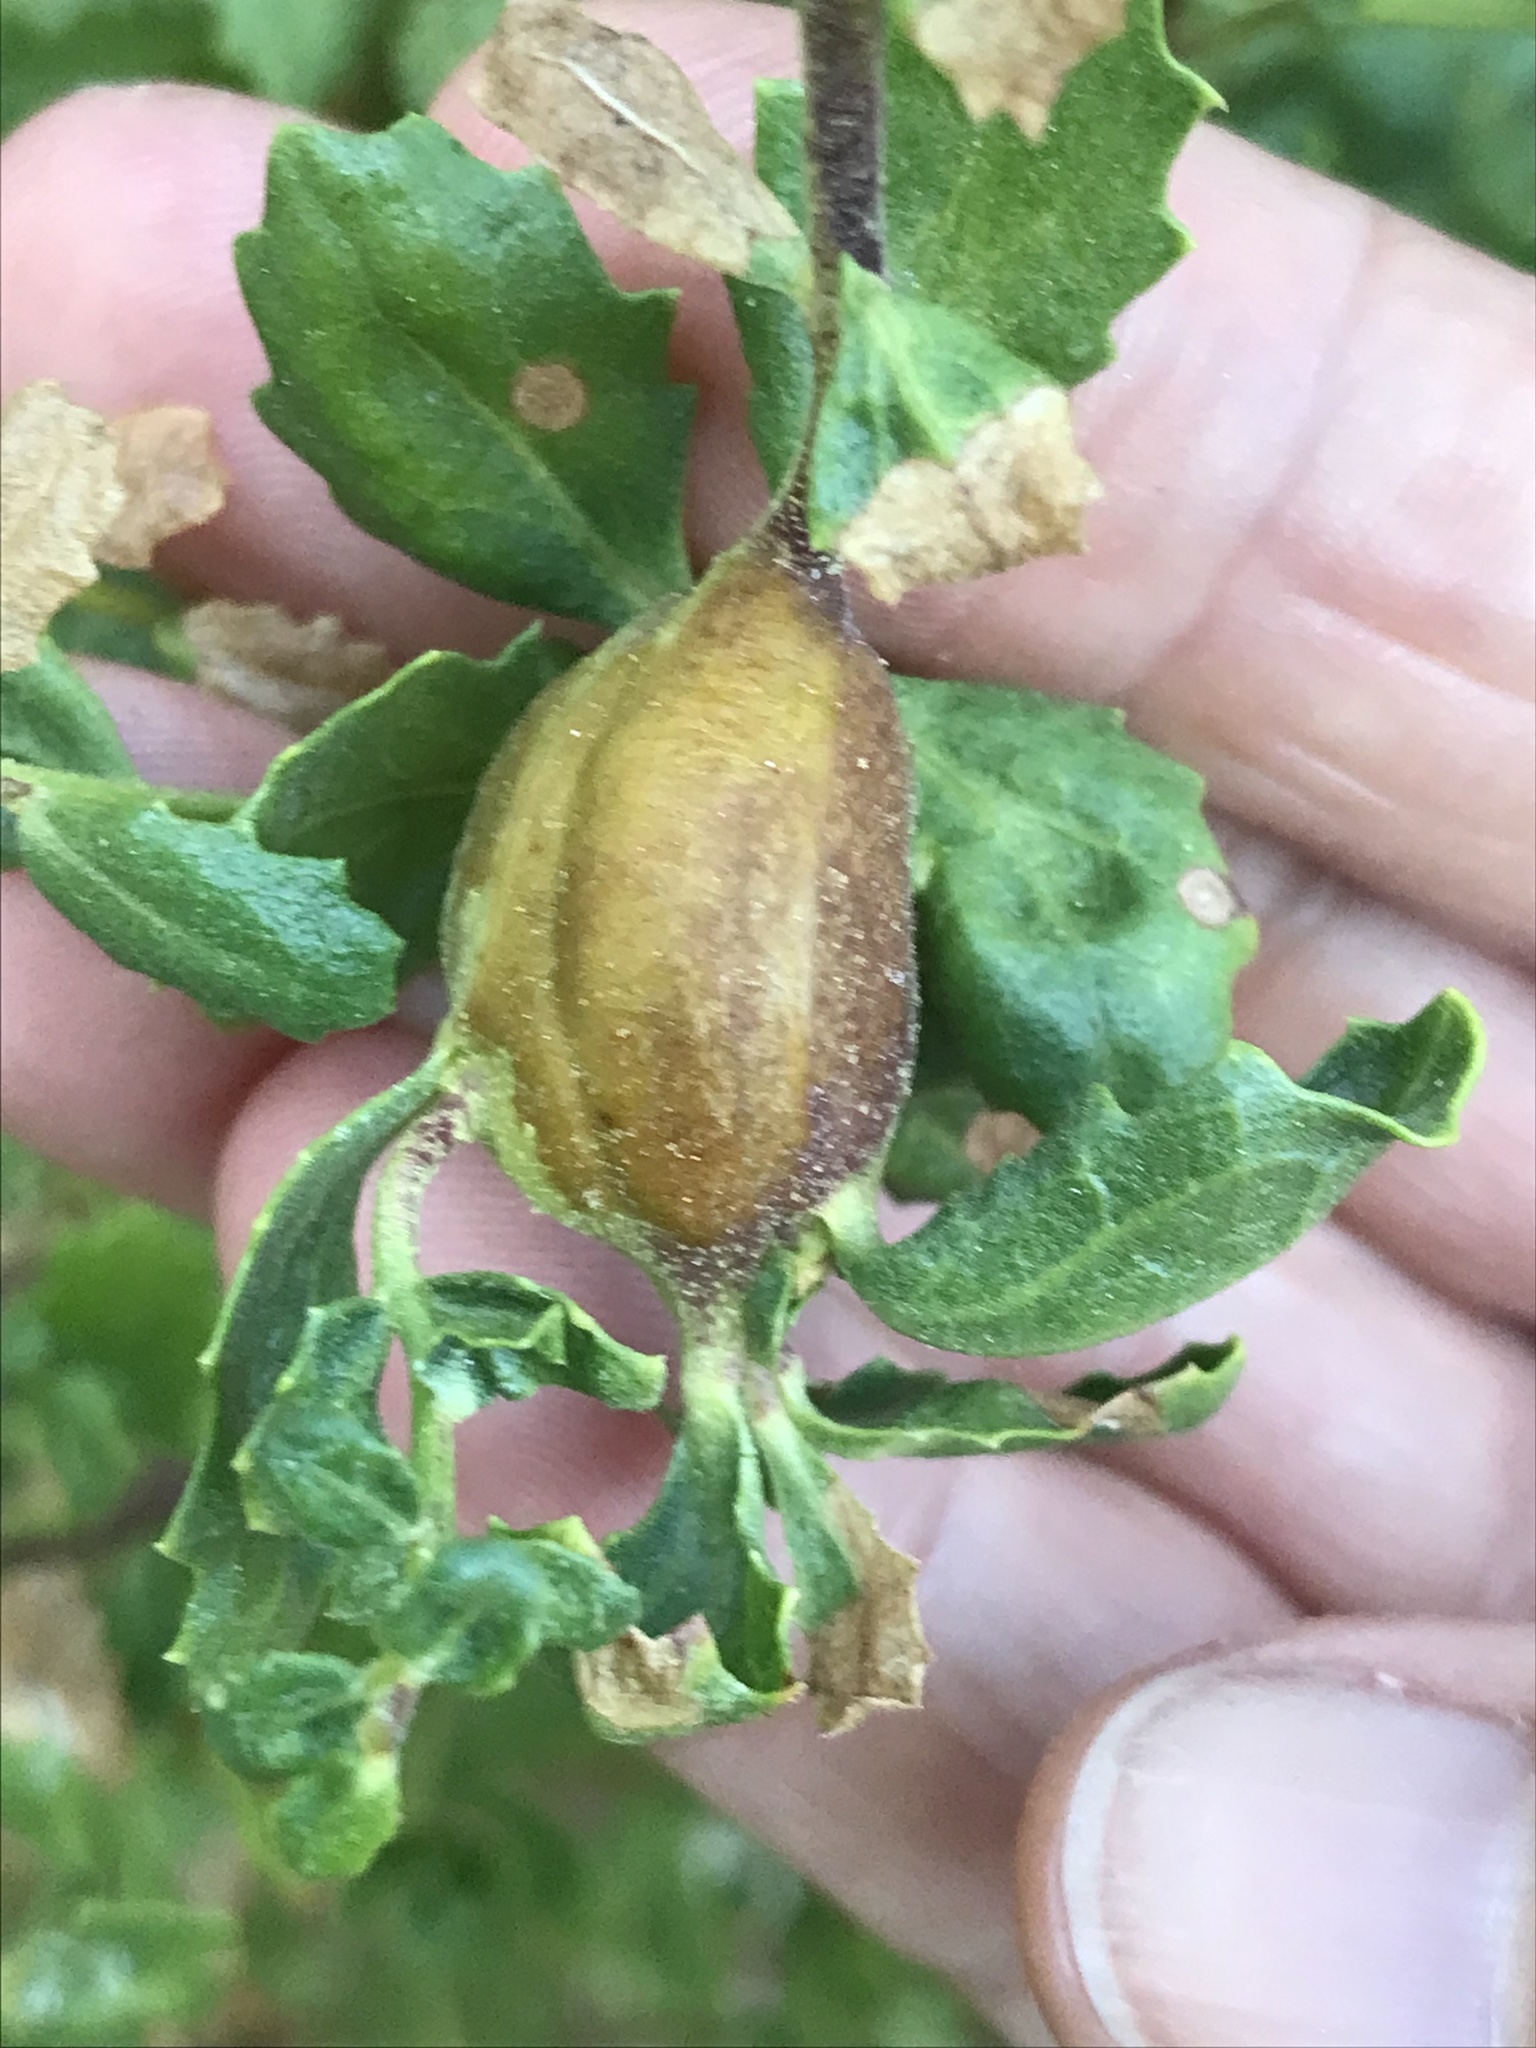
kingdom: Animalia
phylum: Arthropoda
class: Insecta
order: Lepidoptera
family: Gelechiidae
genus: Gnorimoschema
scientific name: Gnorimoschema baccharisella
